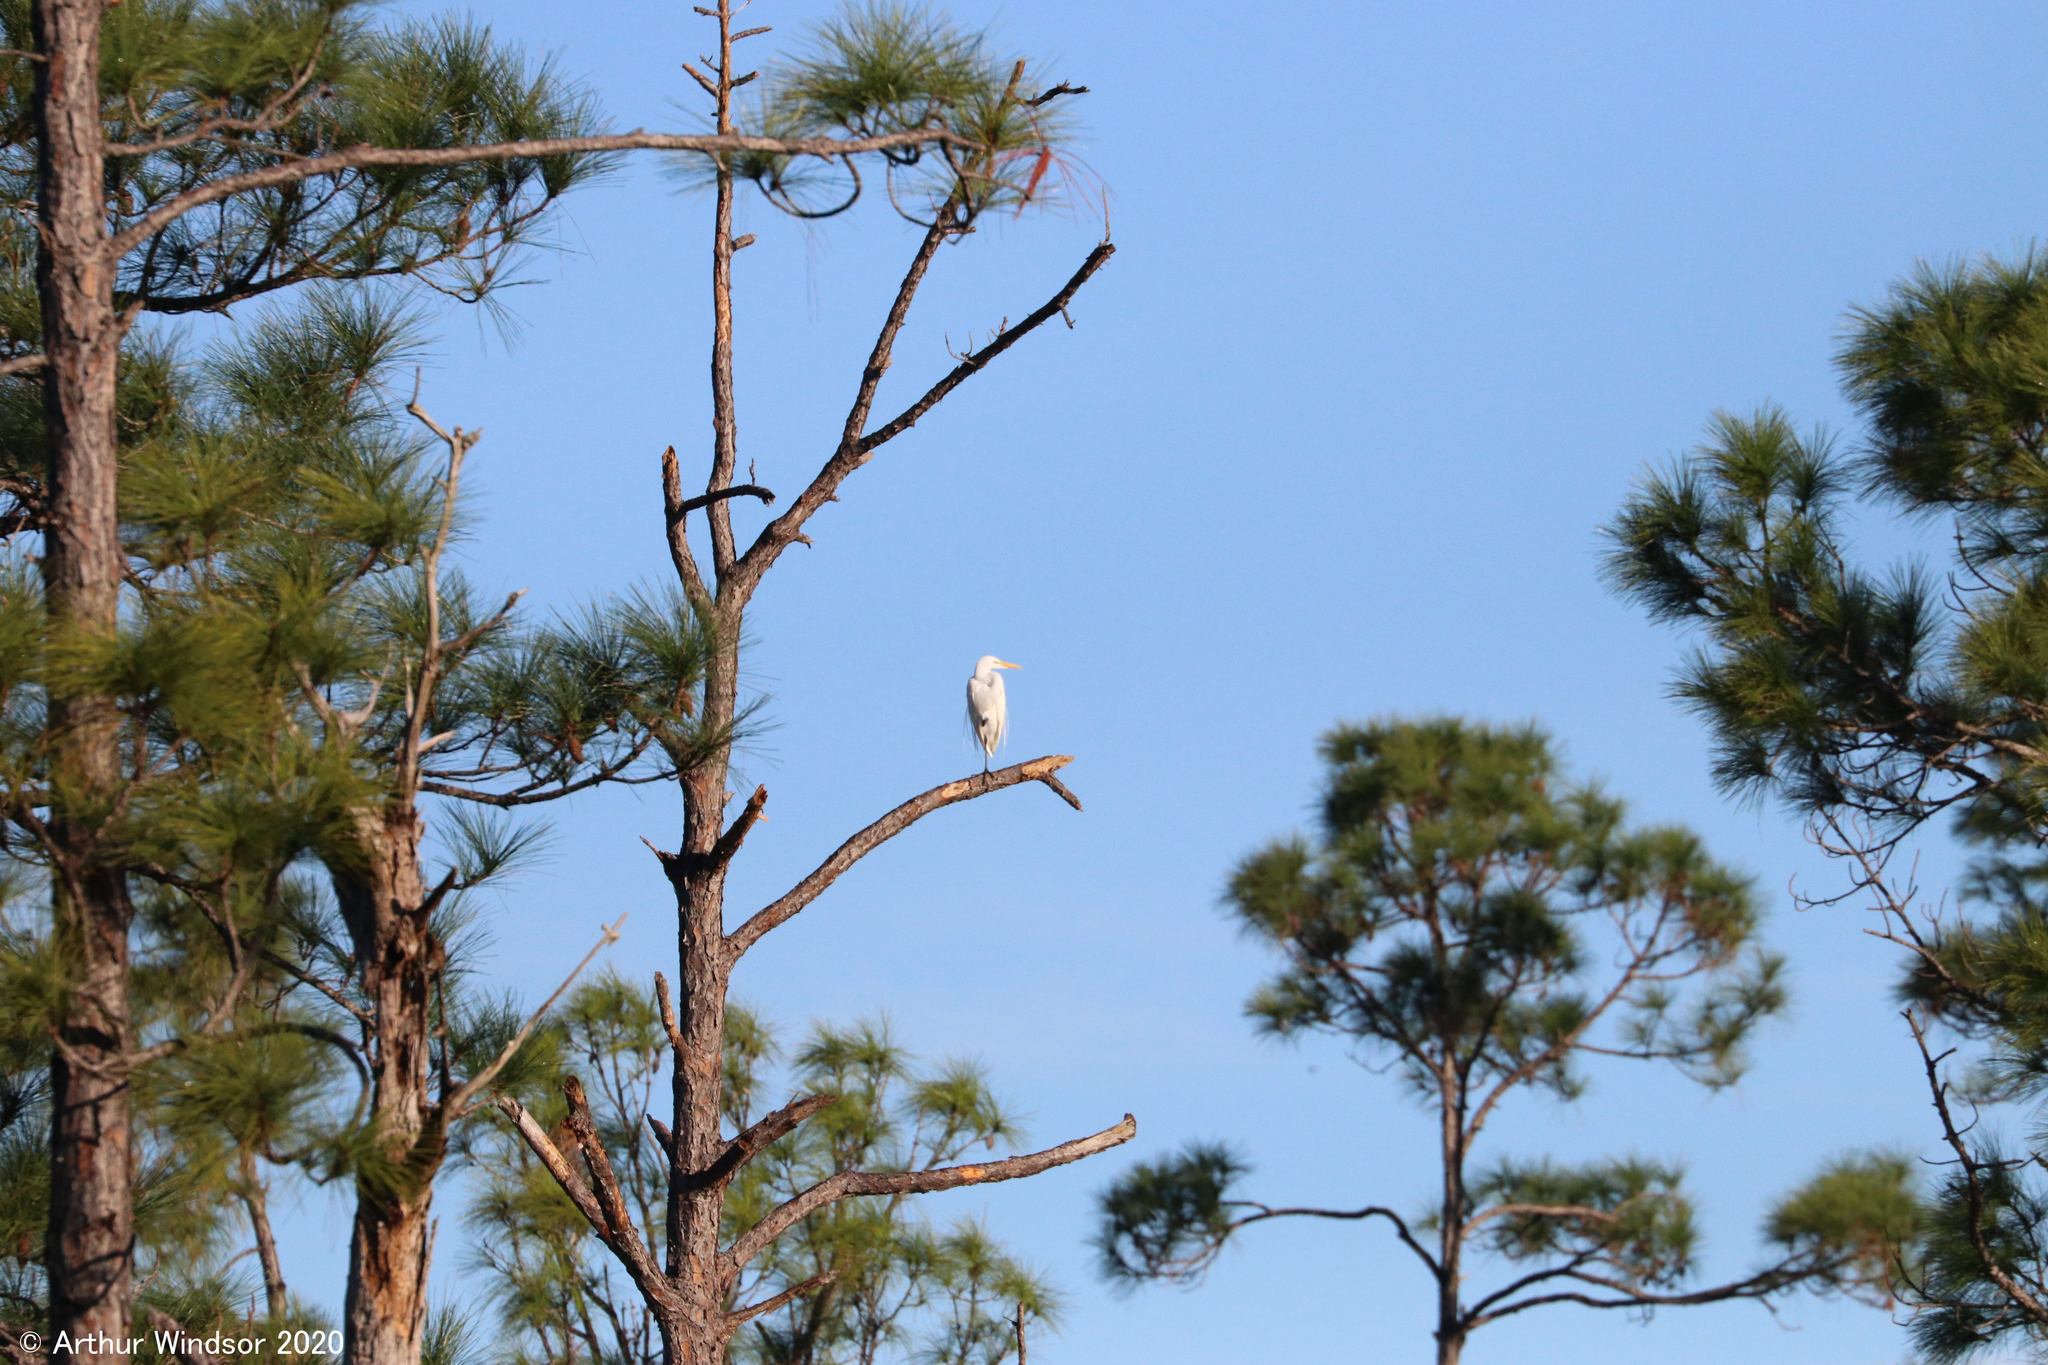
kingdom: Animalia
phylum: Chordata
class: Aves
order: Pelecaniformes
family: Ardeidae
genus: Ardea
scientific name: Ardea alba
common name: Great egret
